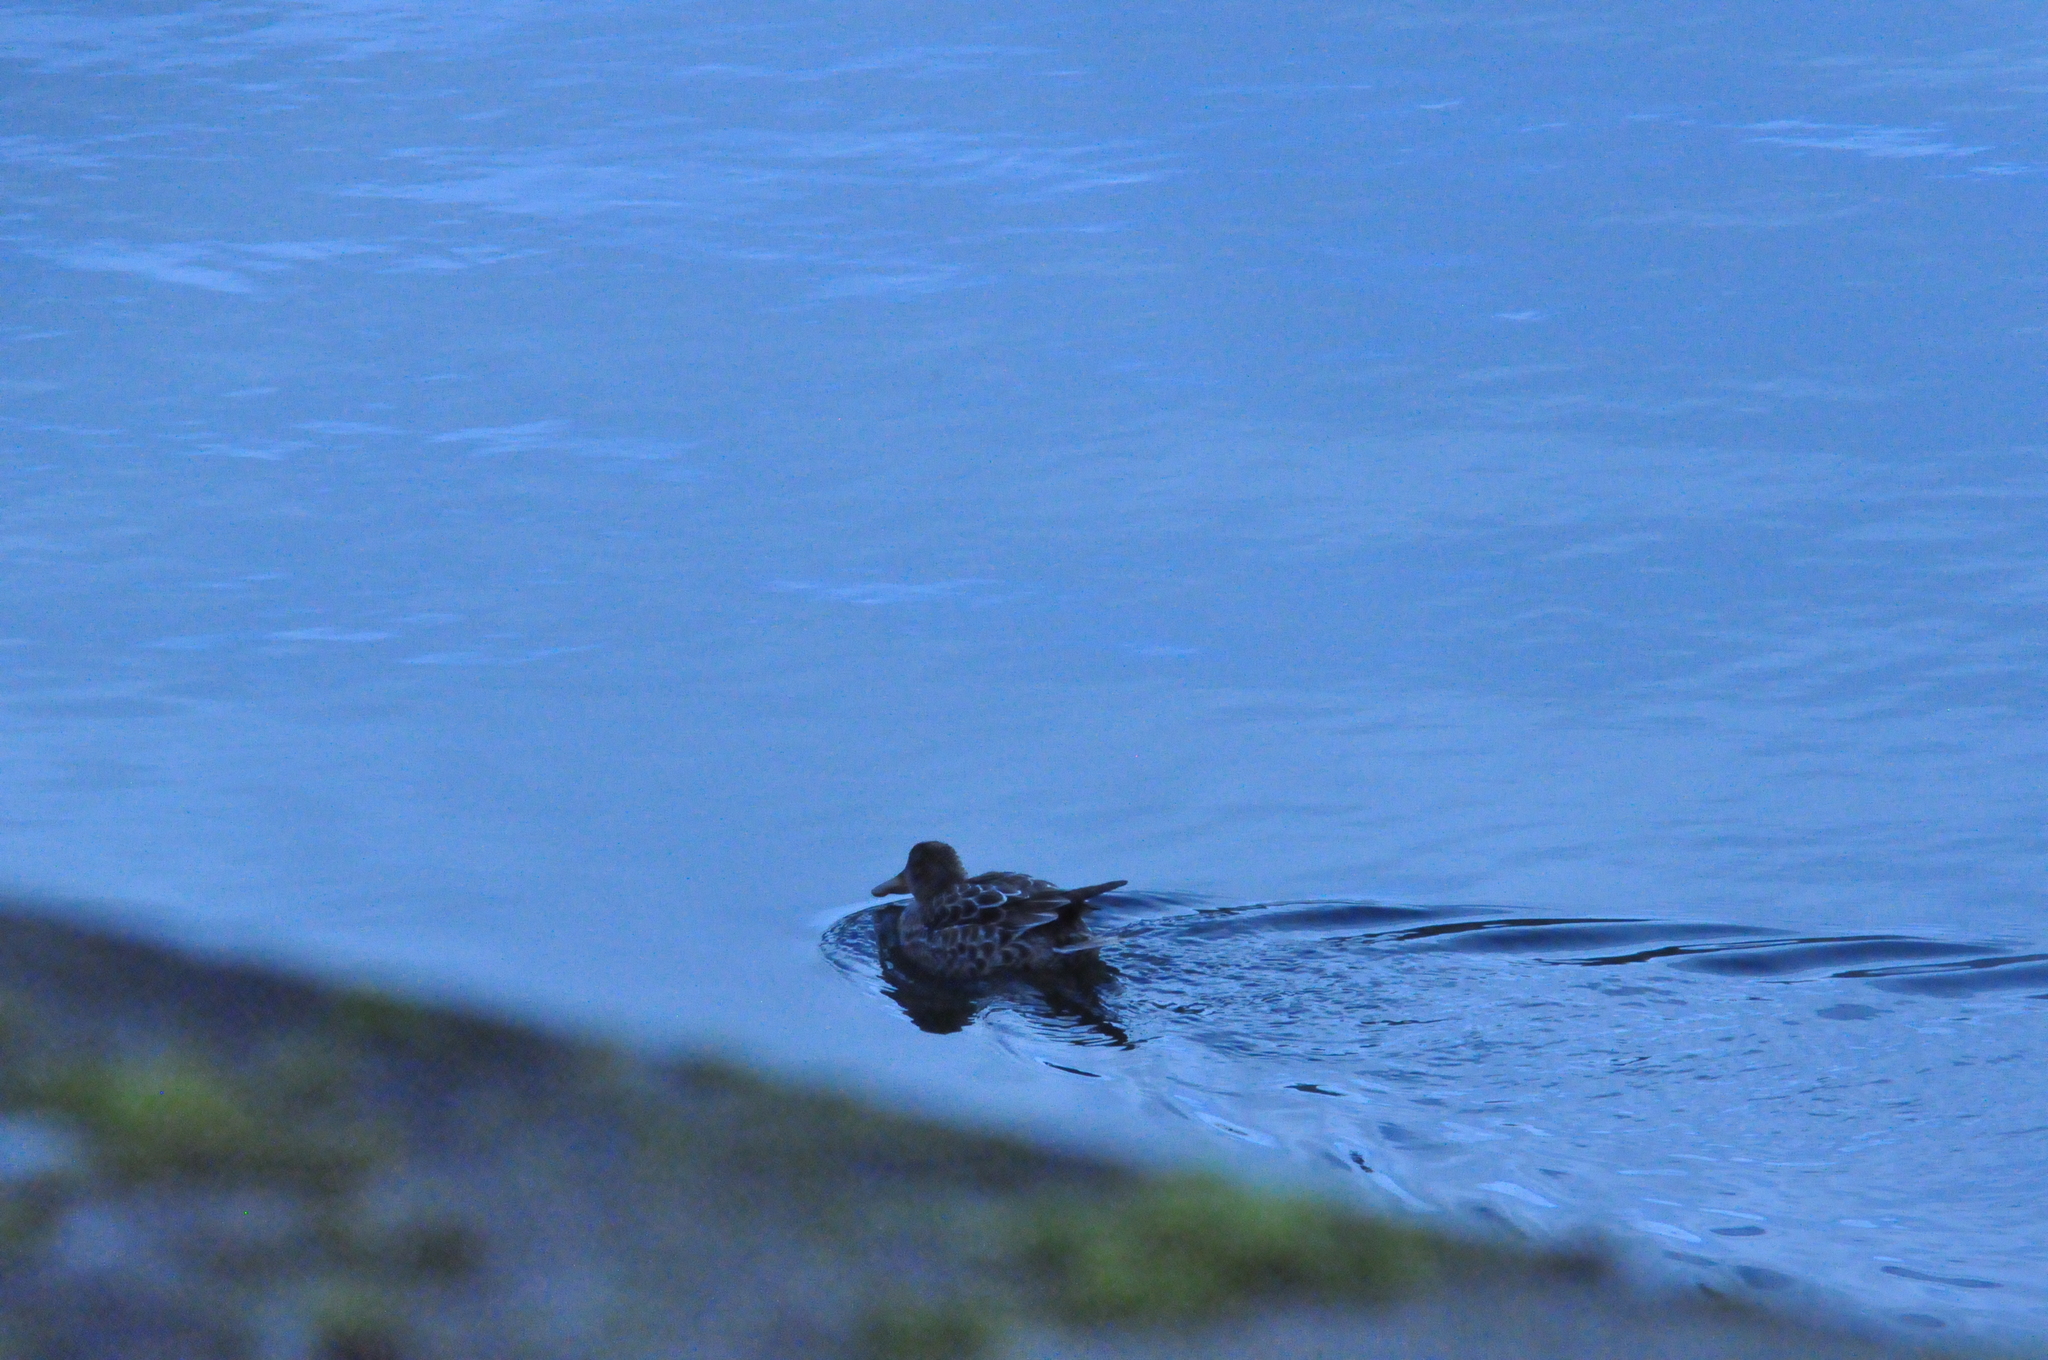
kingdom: Animalia
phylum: Chordata
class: Aves
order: Anseriformes
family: Anatidae
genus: Spatula
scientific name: Spatula clypeata
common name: Northern shoveler
